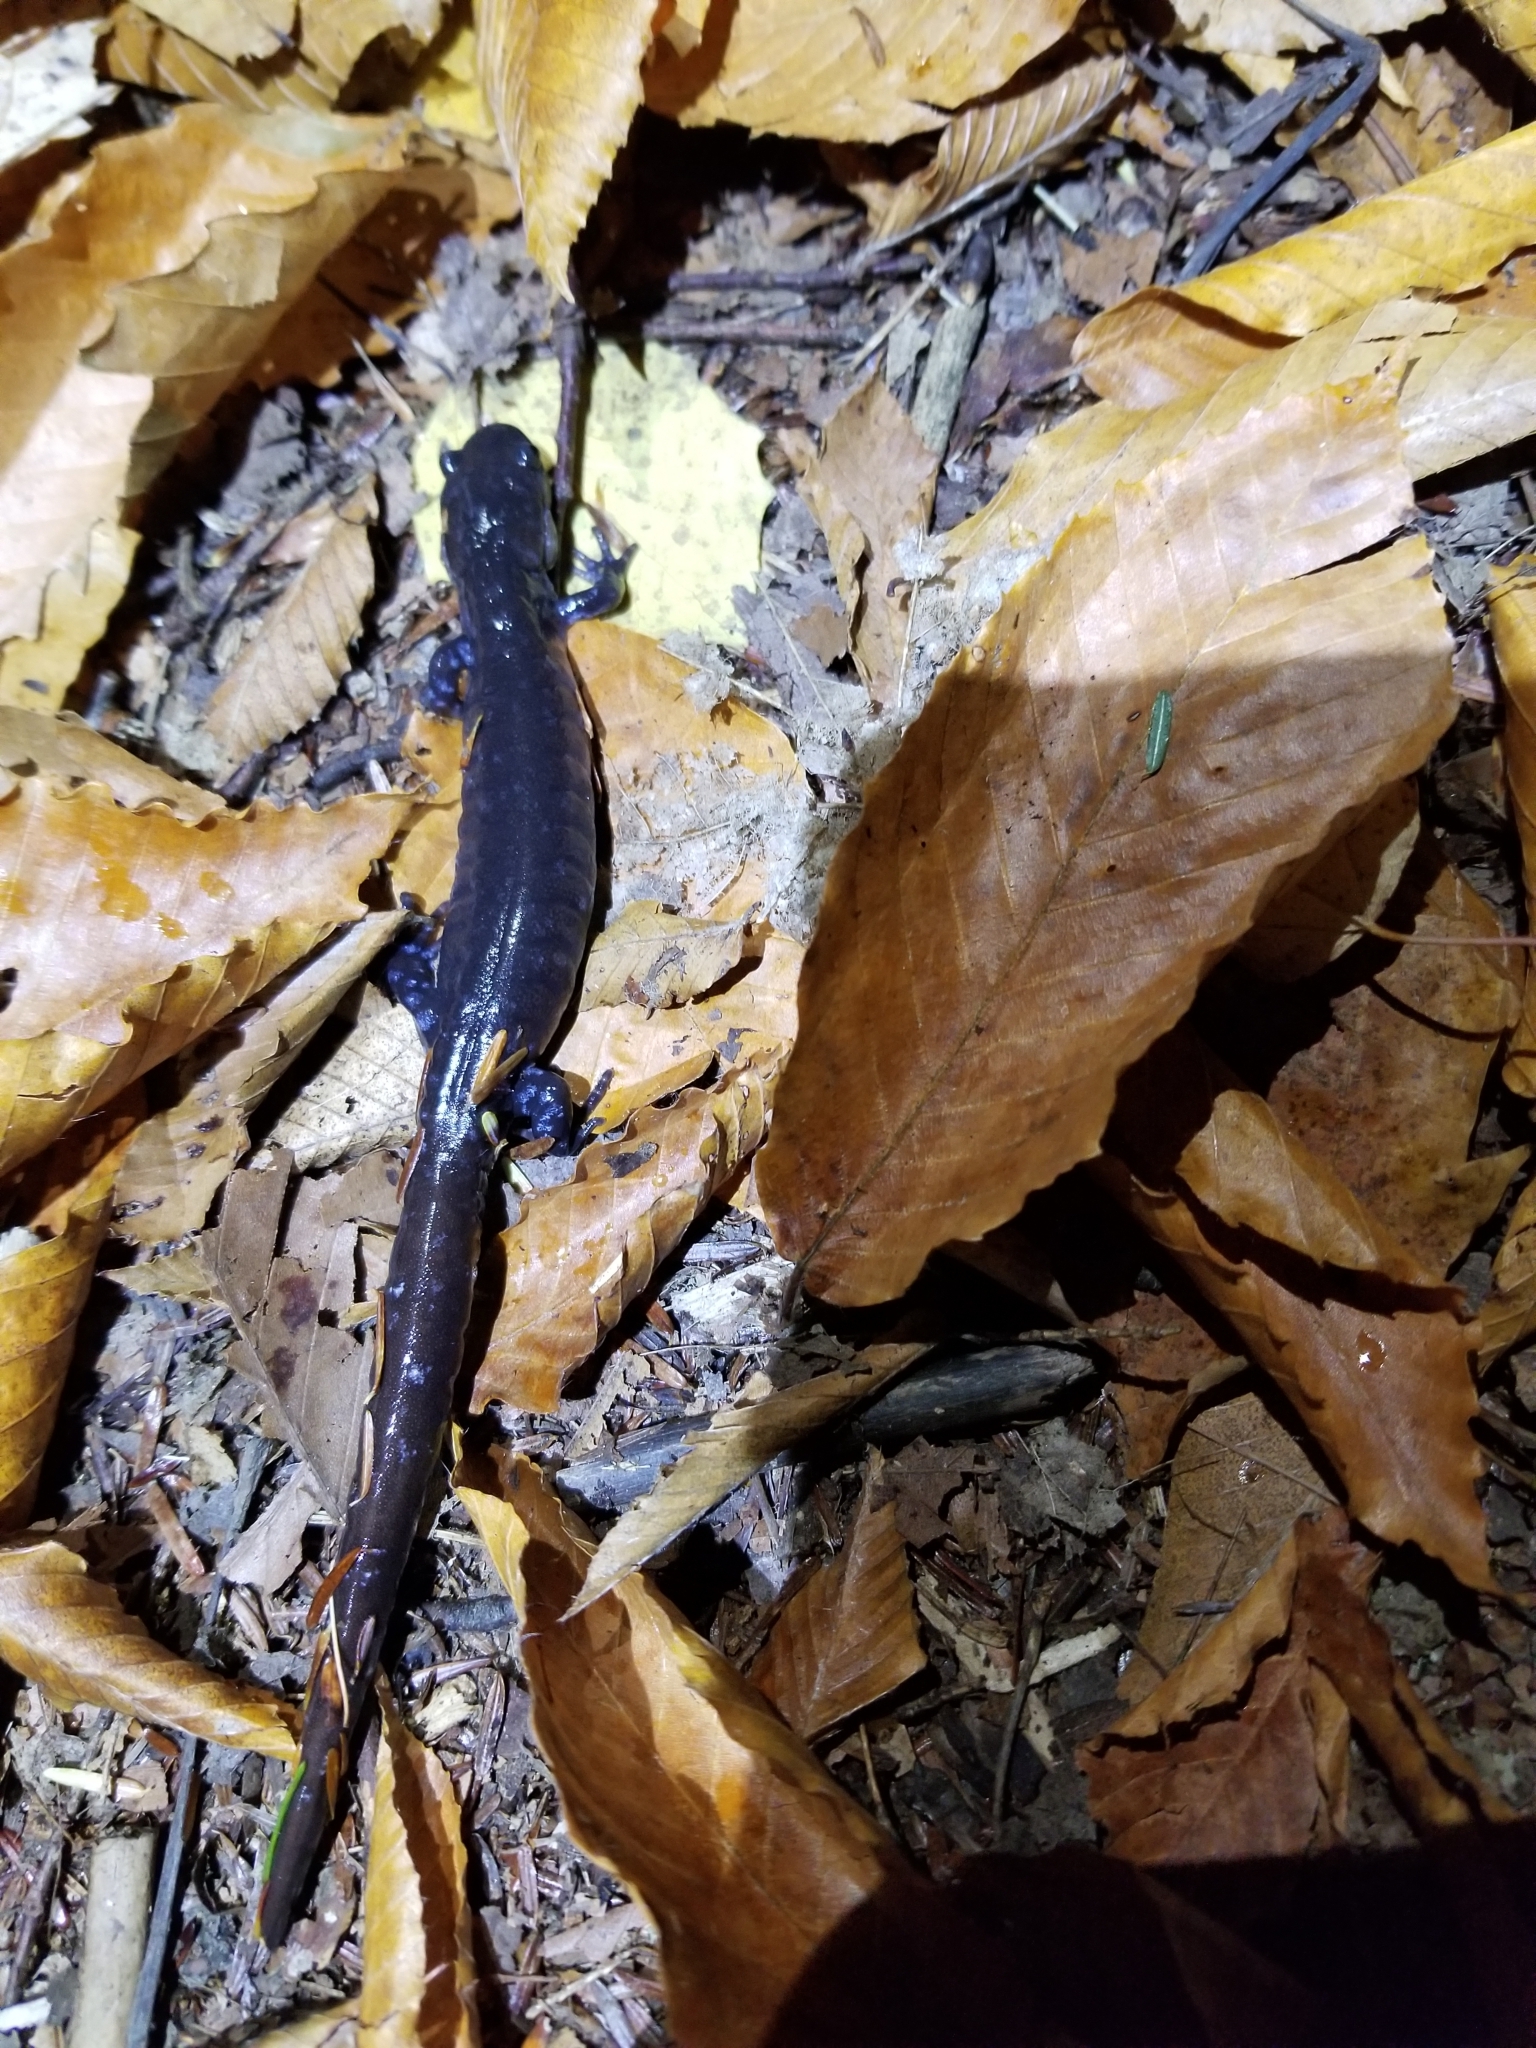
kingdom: Animalia
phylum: Chordata
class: Amphibia
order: Caudata
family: Ambystomatidae
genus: Ambystoma
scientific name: Ambystoma unisexual
